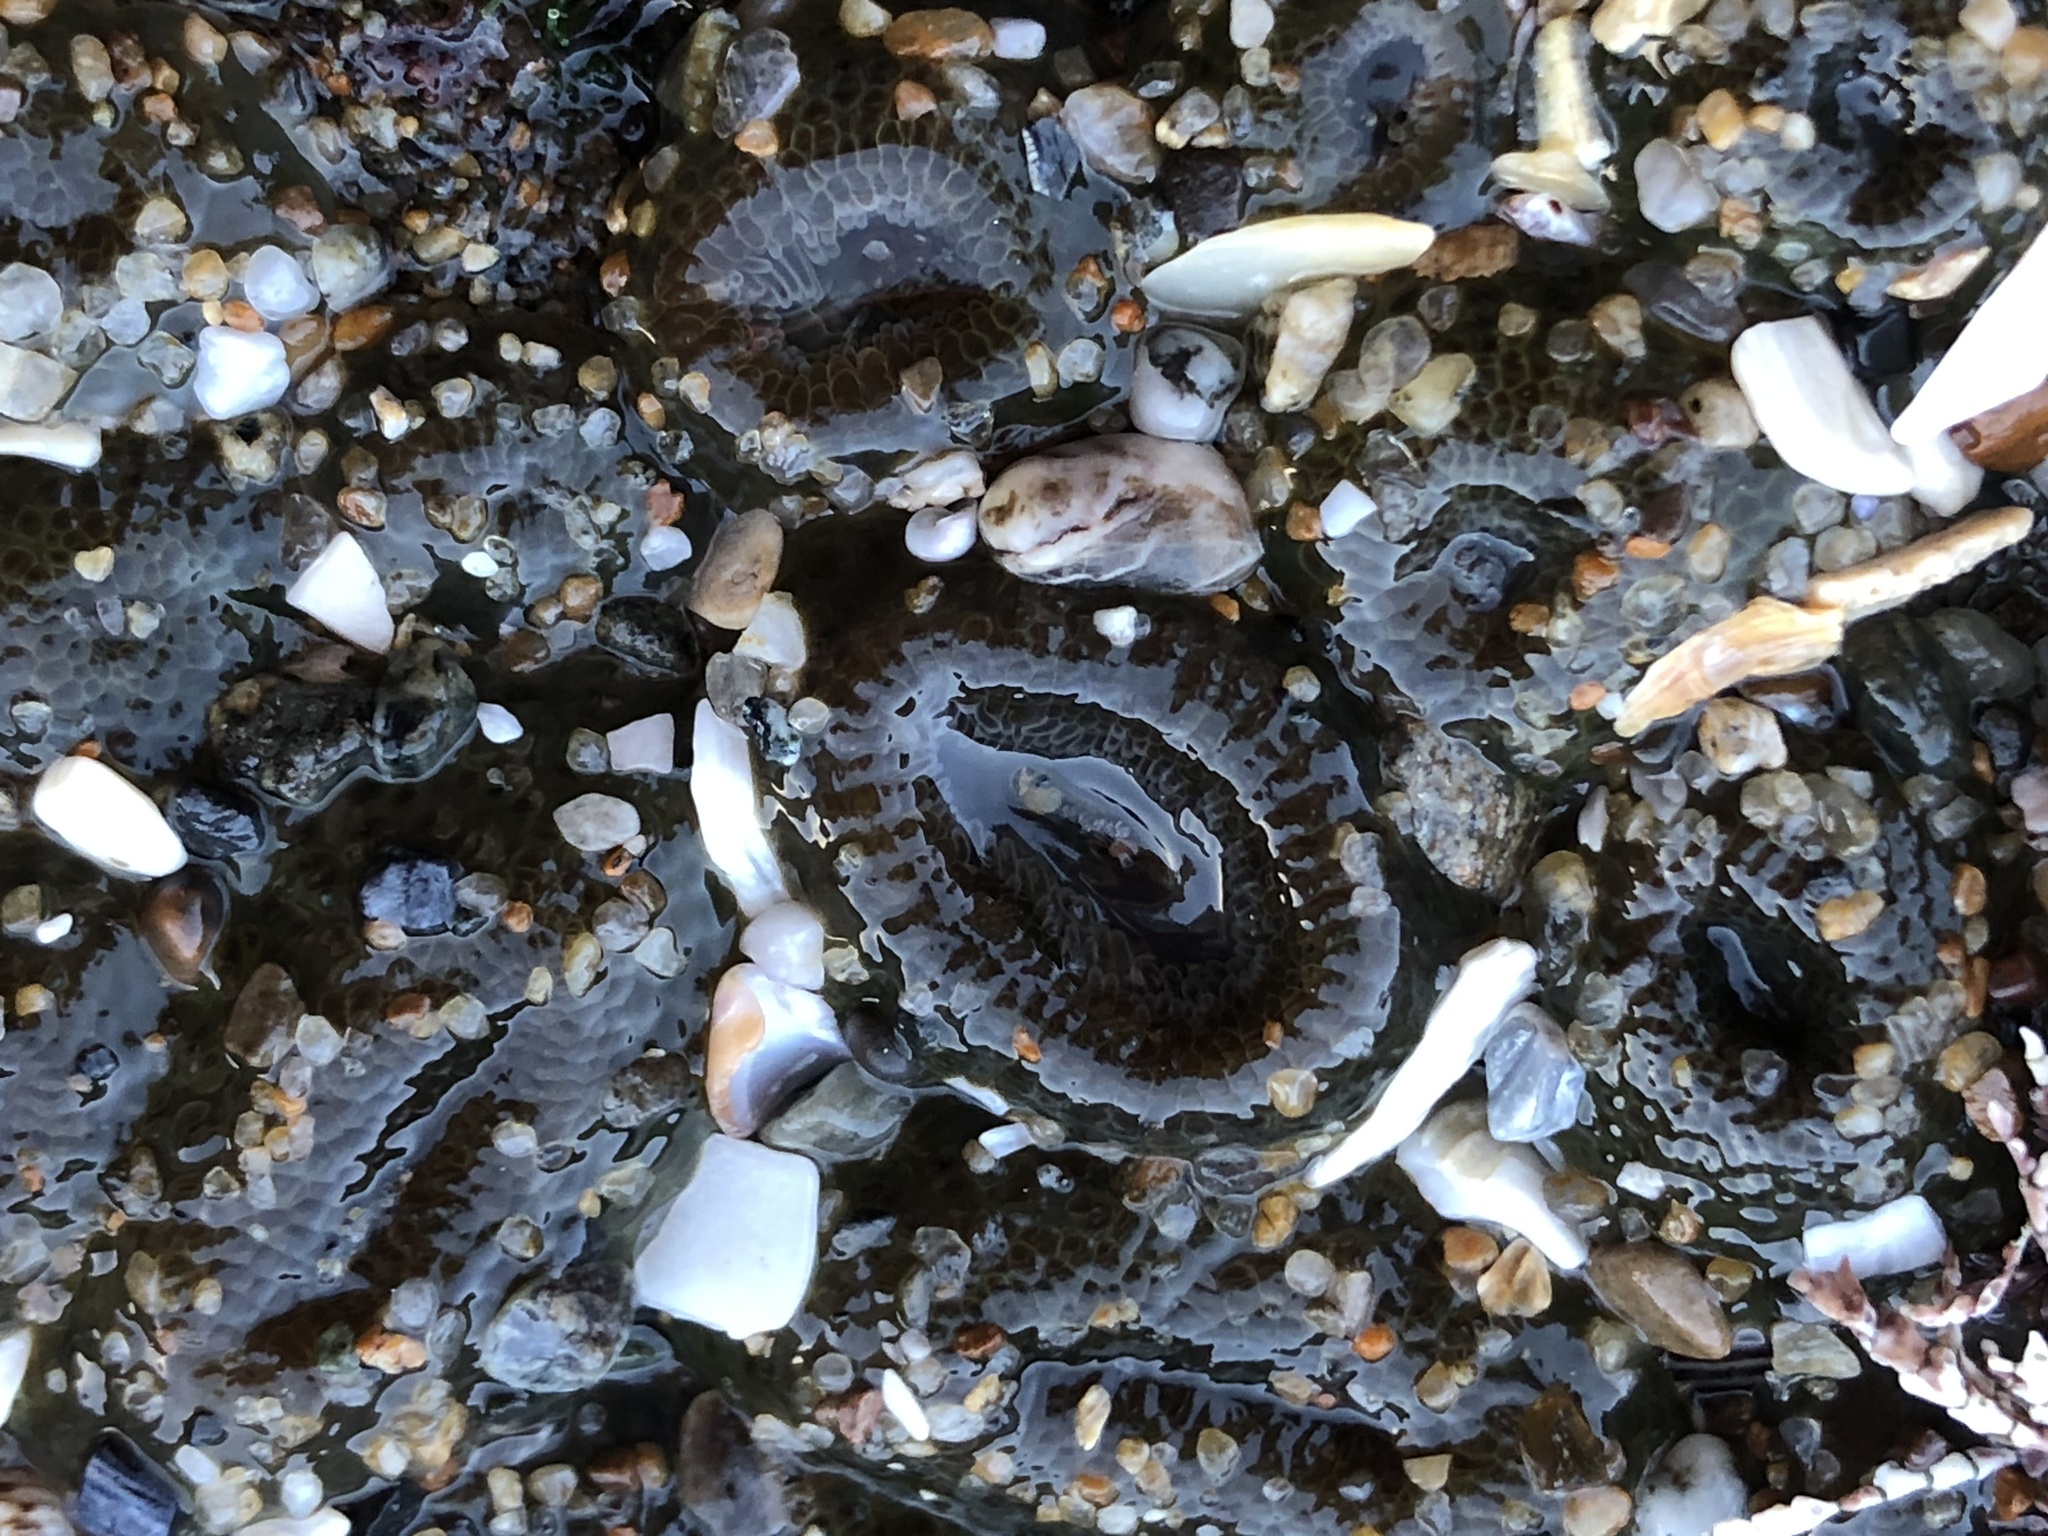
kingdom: Animalia
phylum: Cnidaria
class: Anthozoa
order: Actiniaria
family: Actiniidae
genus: Anthopleura
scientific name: Anthopleura elegantissima
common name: Clonal anemone
